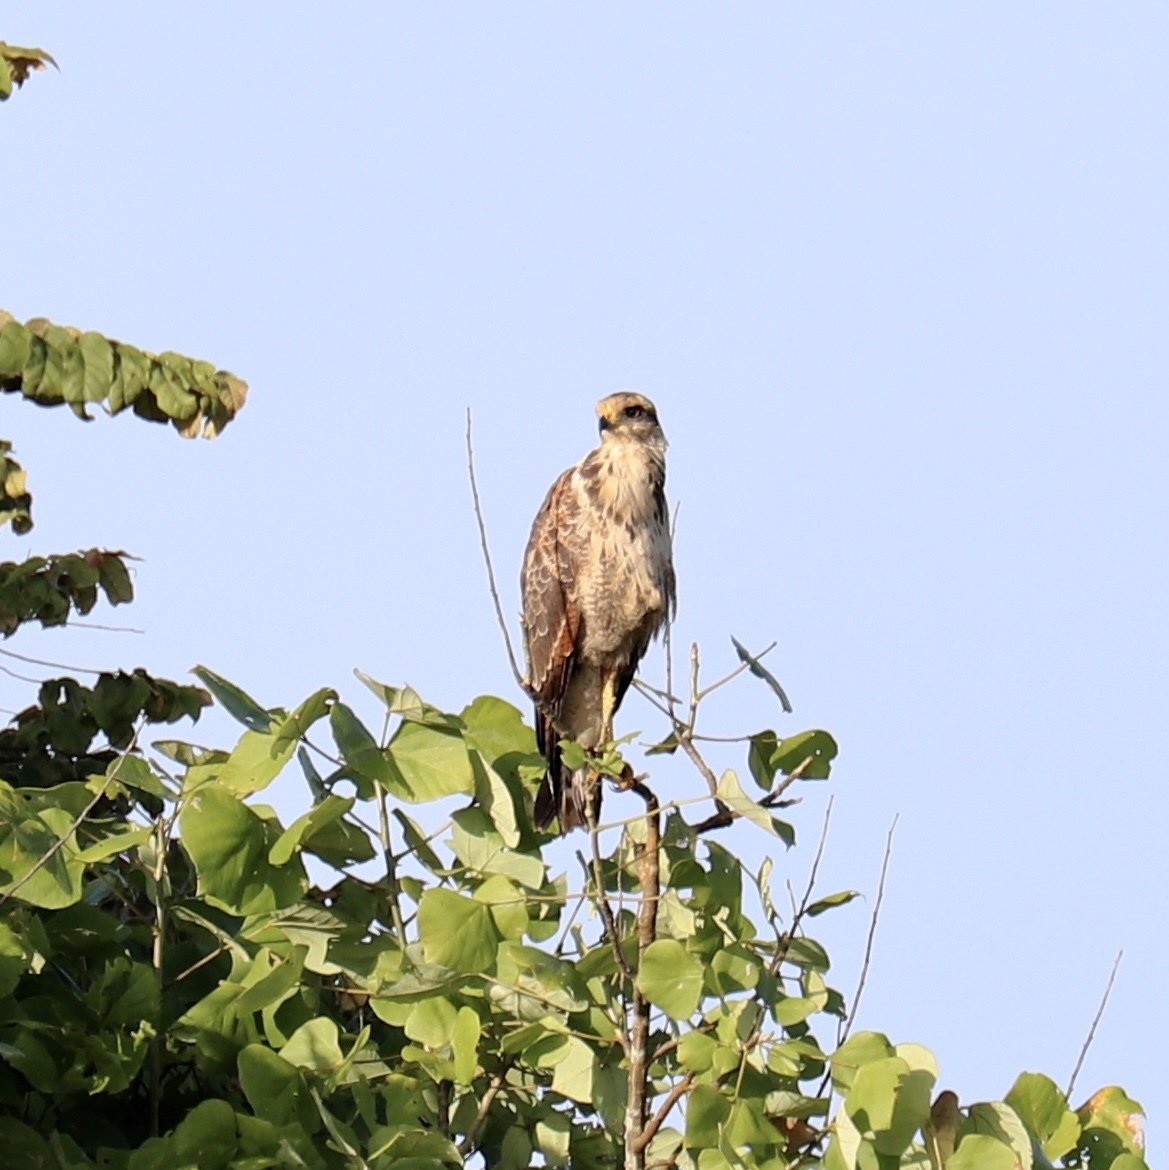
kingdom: Animalia
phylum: Chordata
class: Aves
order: Accipitriformes
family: Accipitridae
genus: Buteogallus
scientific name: Buteogallus meridionalis
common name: Savanna hawk
